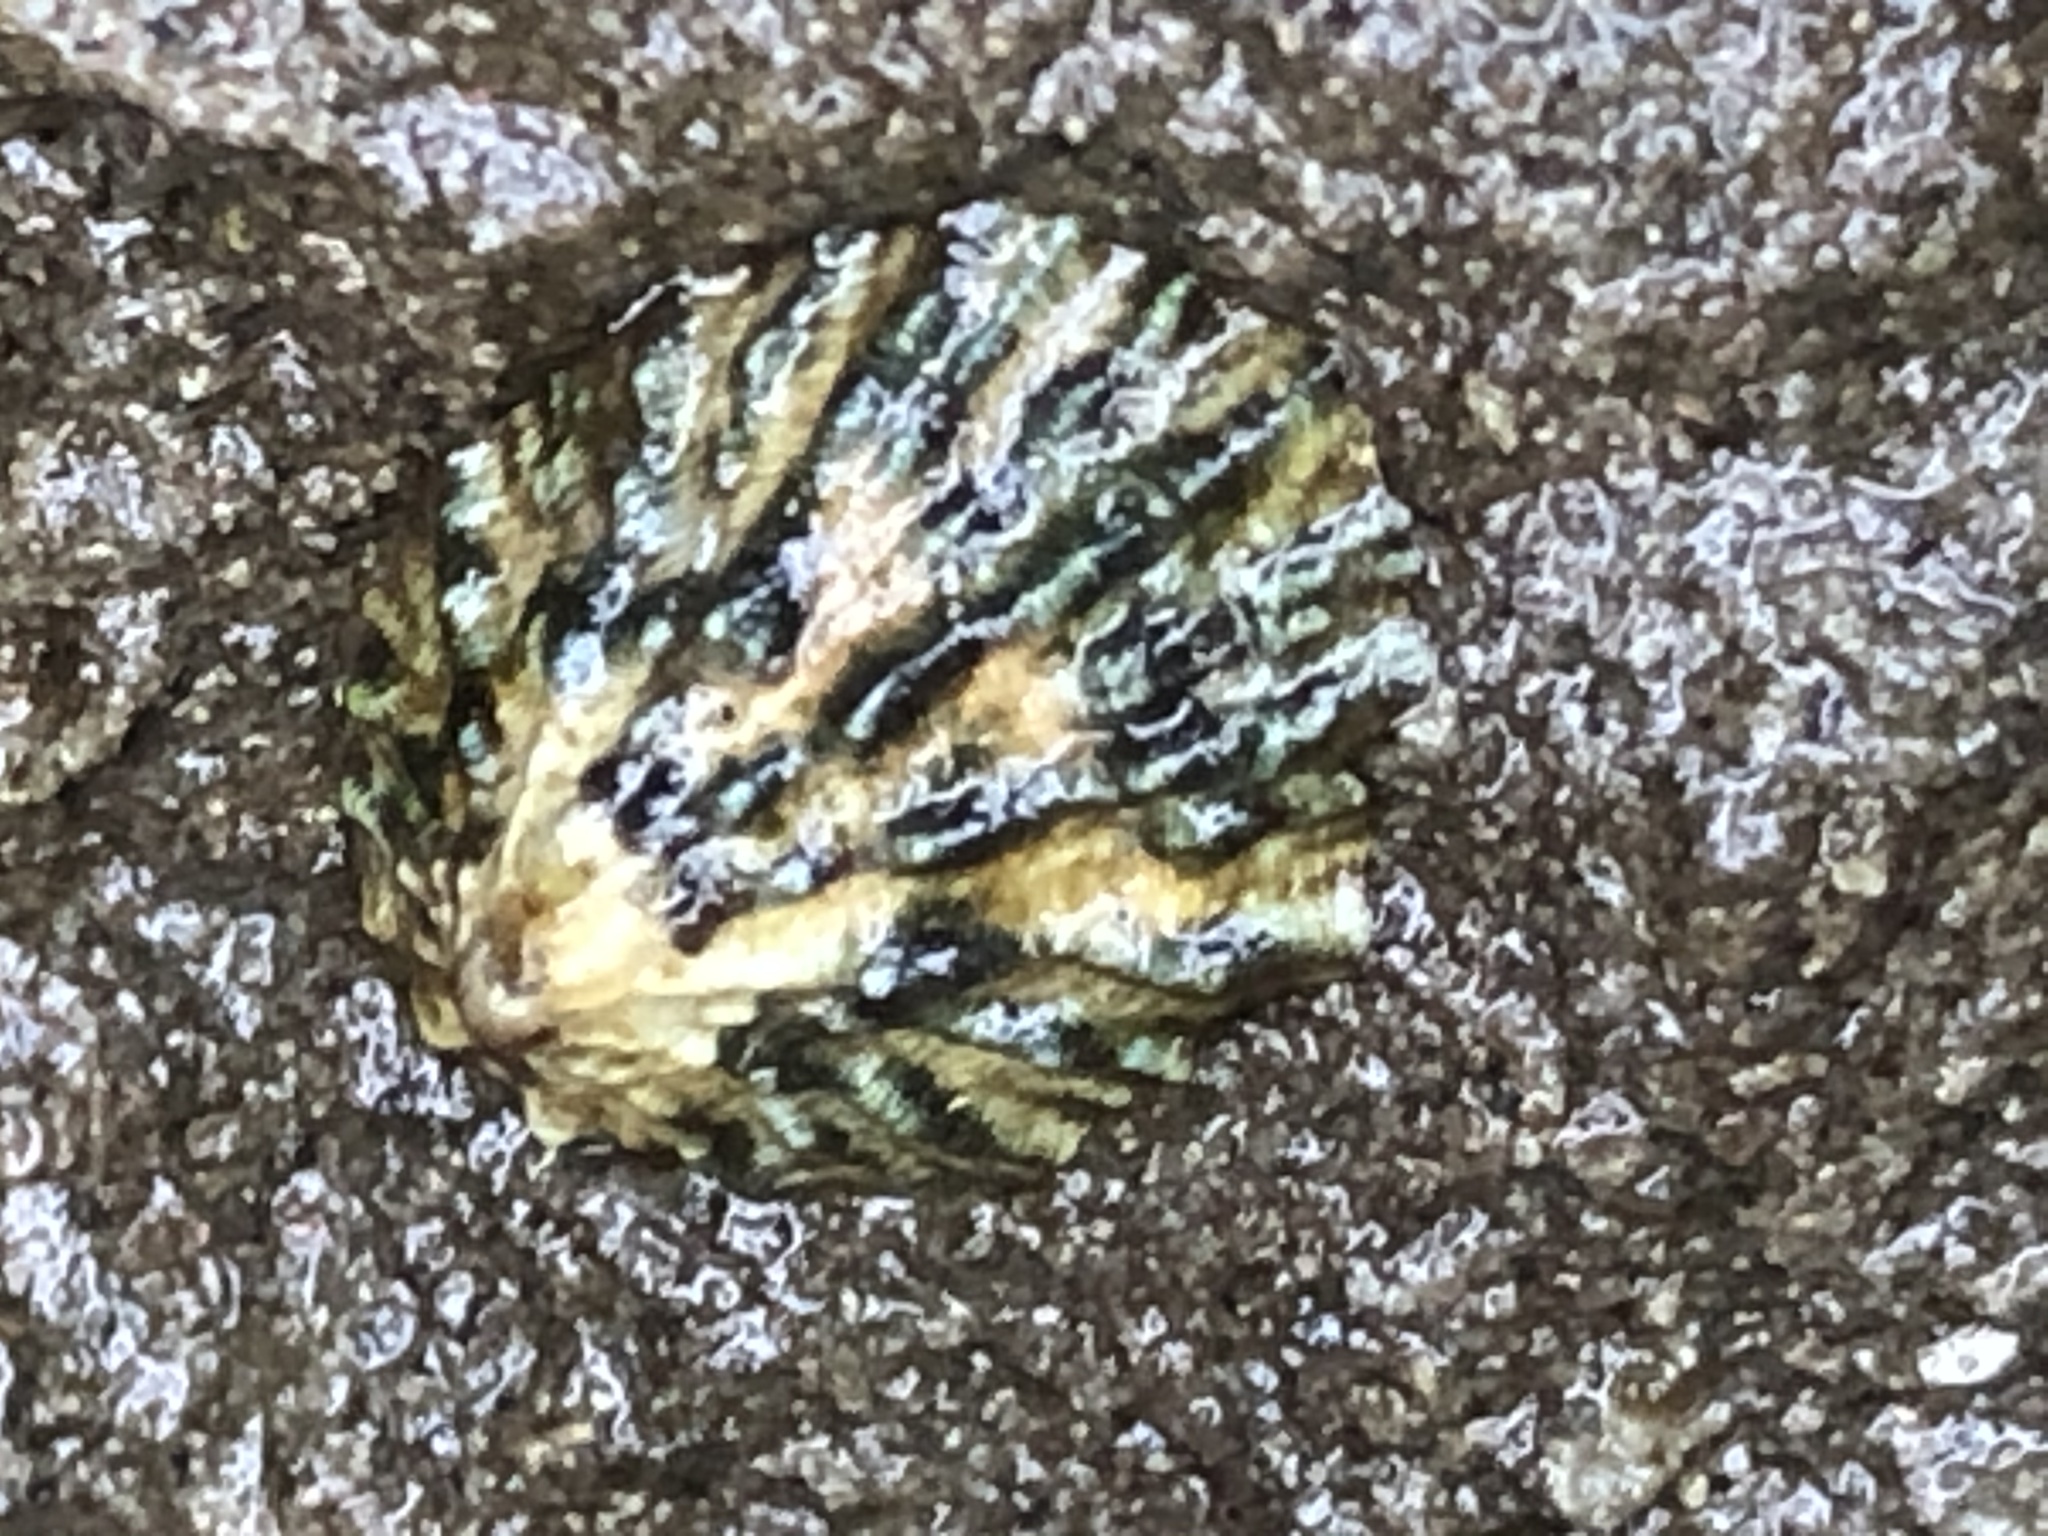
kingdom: Animalia
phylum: Mollusca
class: Gastropoda
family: Lottiidae
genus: Lottia
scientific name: Lottia scabra
